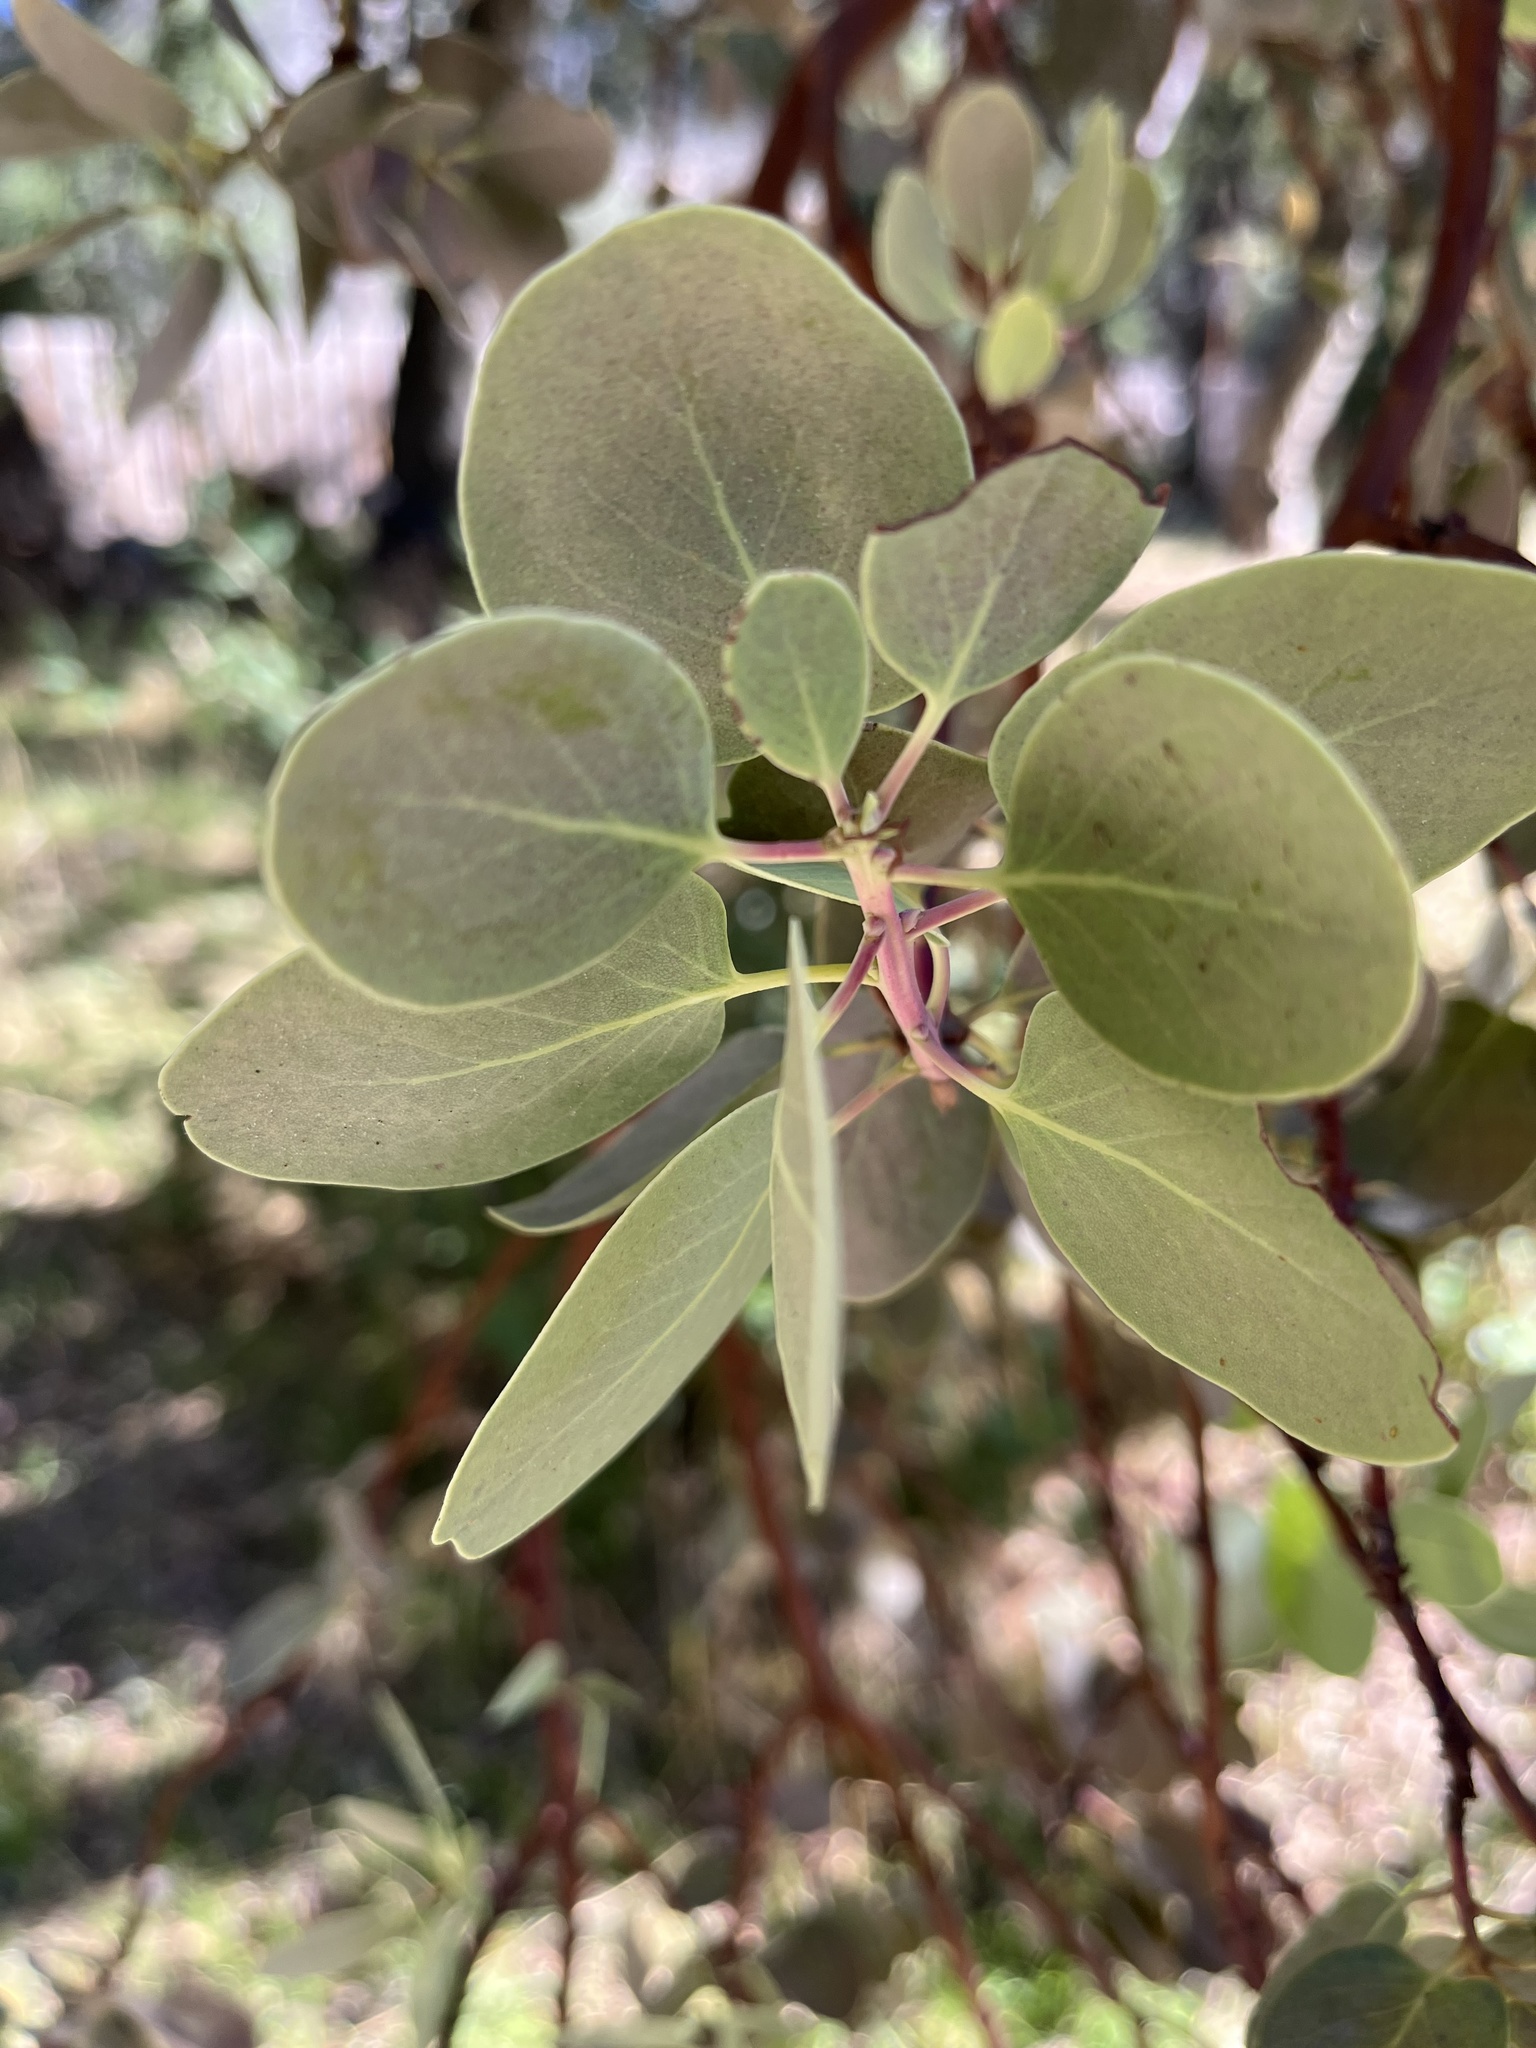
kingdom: Plantae
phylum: Tracheophyta
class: Magnoliopsida
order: Ericales
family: Ericaceae
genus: Arctostaphylos
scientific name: Arctostaphylos glauca
